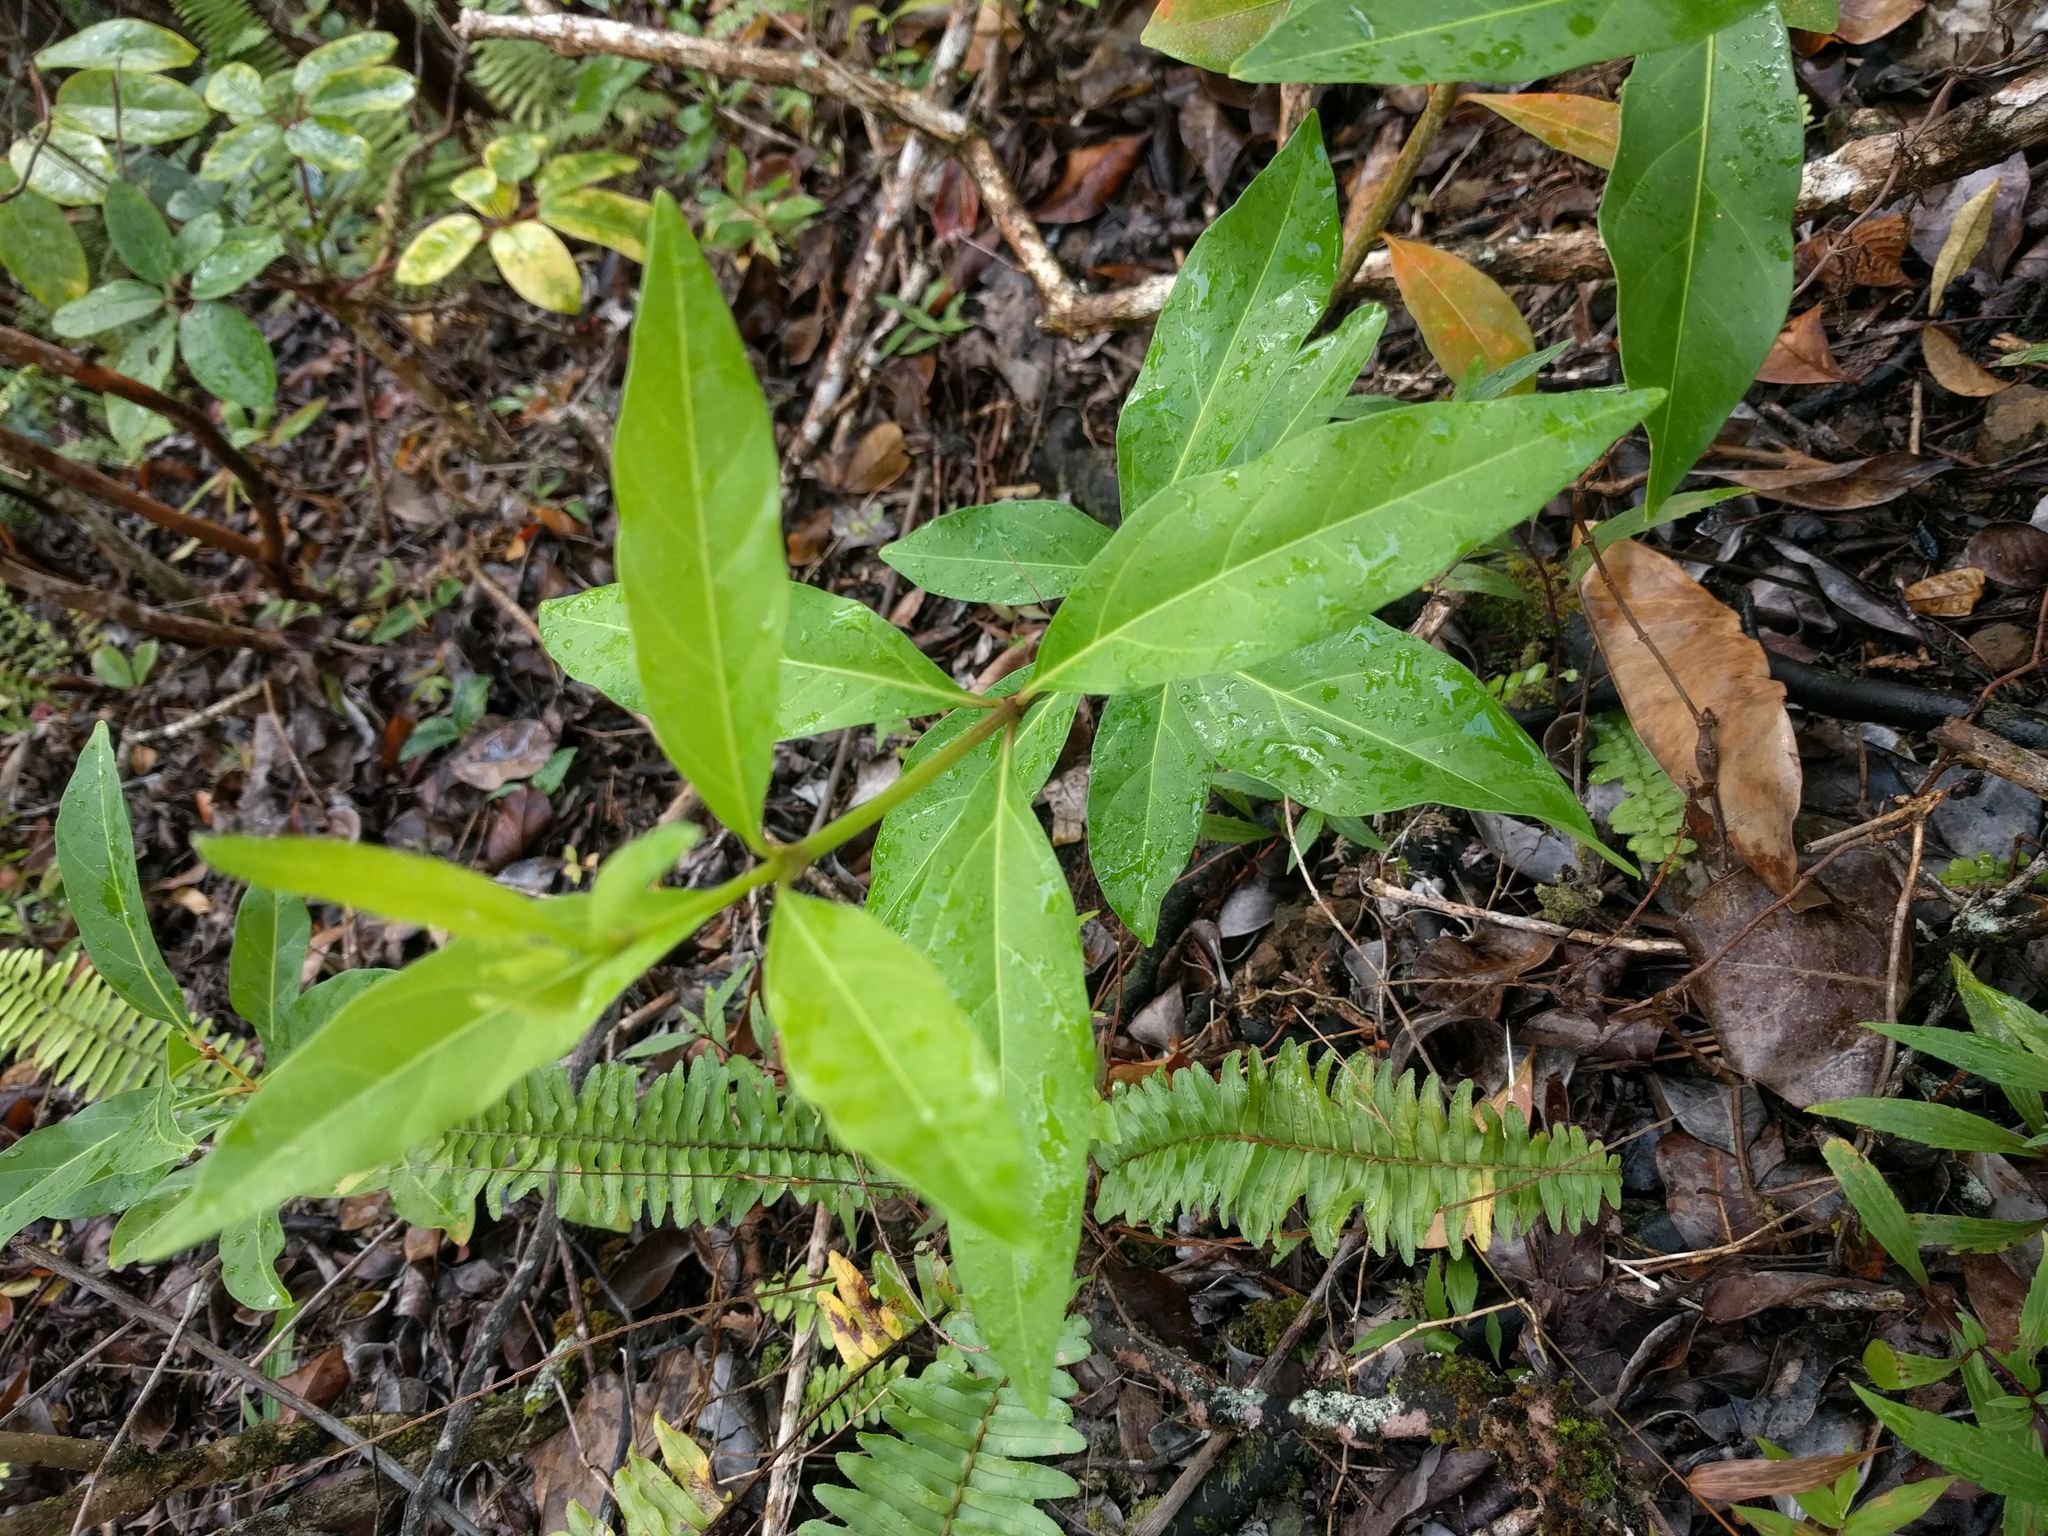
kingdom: Plantae
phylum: Tracheophyta
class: Magnoliopsida
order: Lamiales
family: Verbenaceae
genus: Citharexylum
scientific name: Citharexylum caudatum
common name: Fiddlewood
